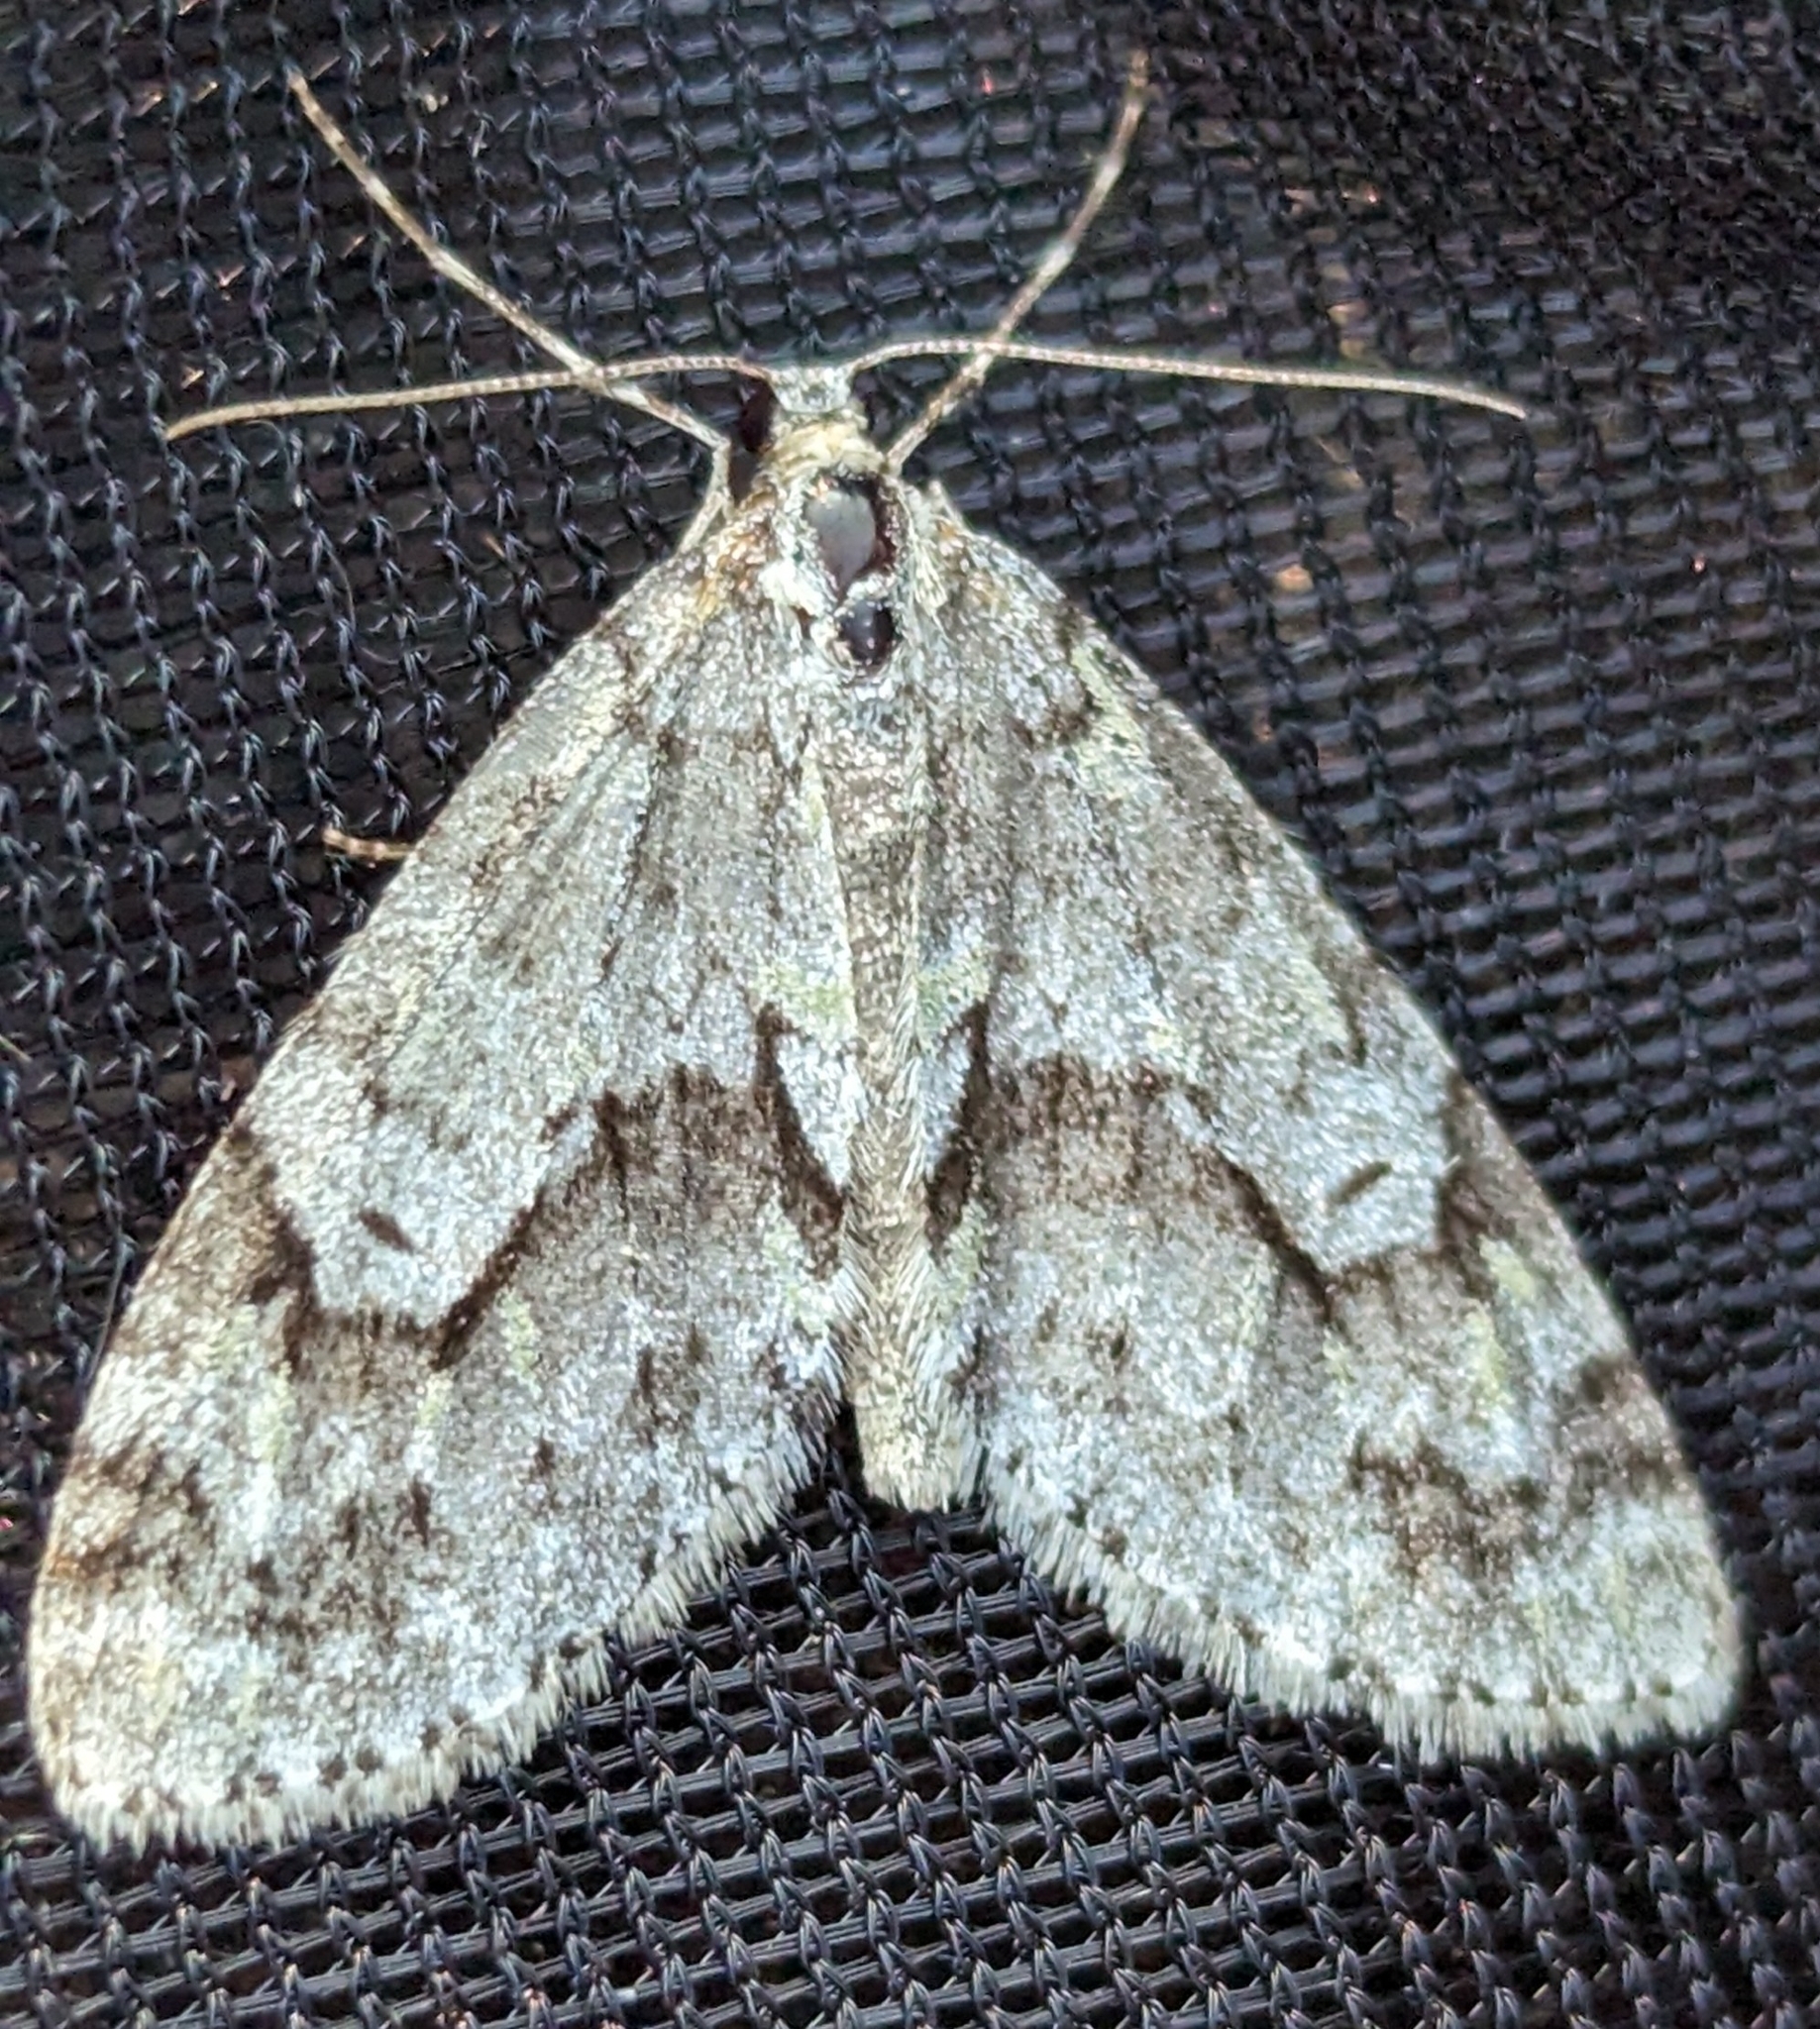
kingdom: Animalia
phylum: Arthropoda
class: Insecta
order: Lepidoptera
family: Geometridae
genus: Cladara
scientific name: Cladara limitaria
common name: Mottled gray carpet
